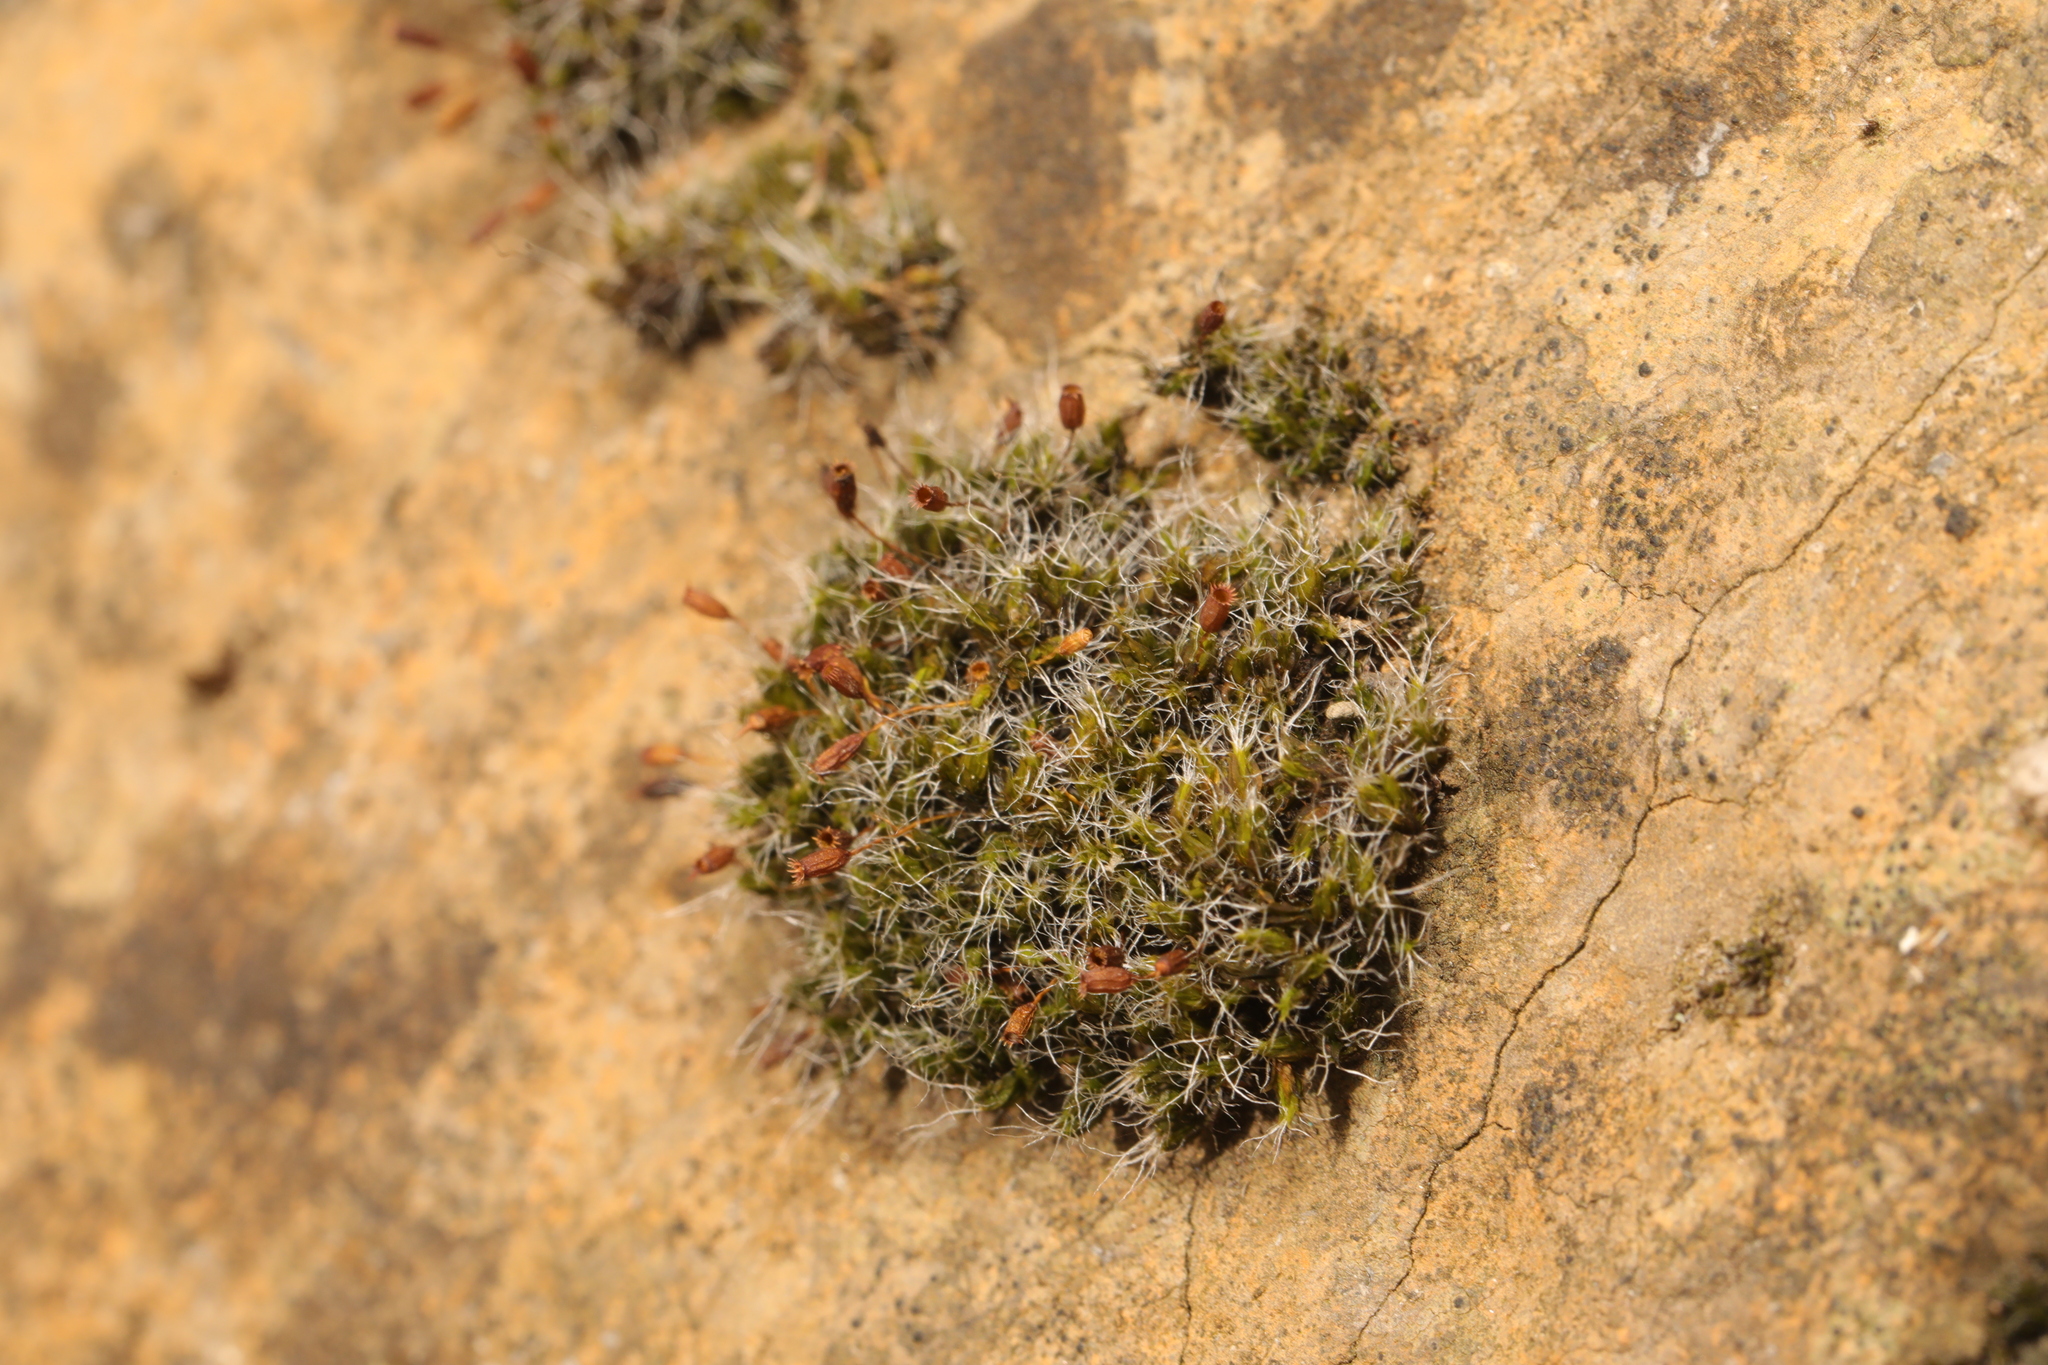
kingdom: Plantae
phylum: Bryophyta
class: Bryopsida
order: Grimmiales
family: Grimmiaceae
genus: Grimmia
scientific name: Grimmia pulvinata
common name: Grey-cushioned grimmia
